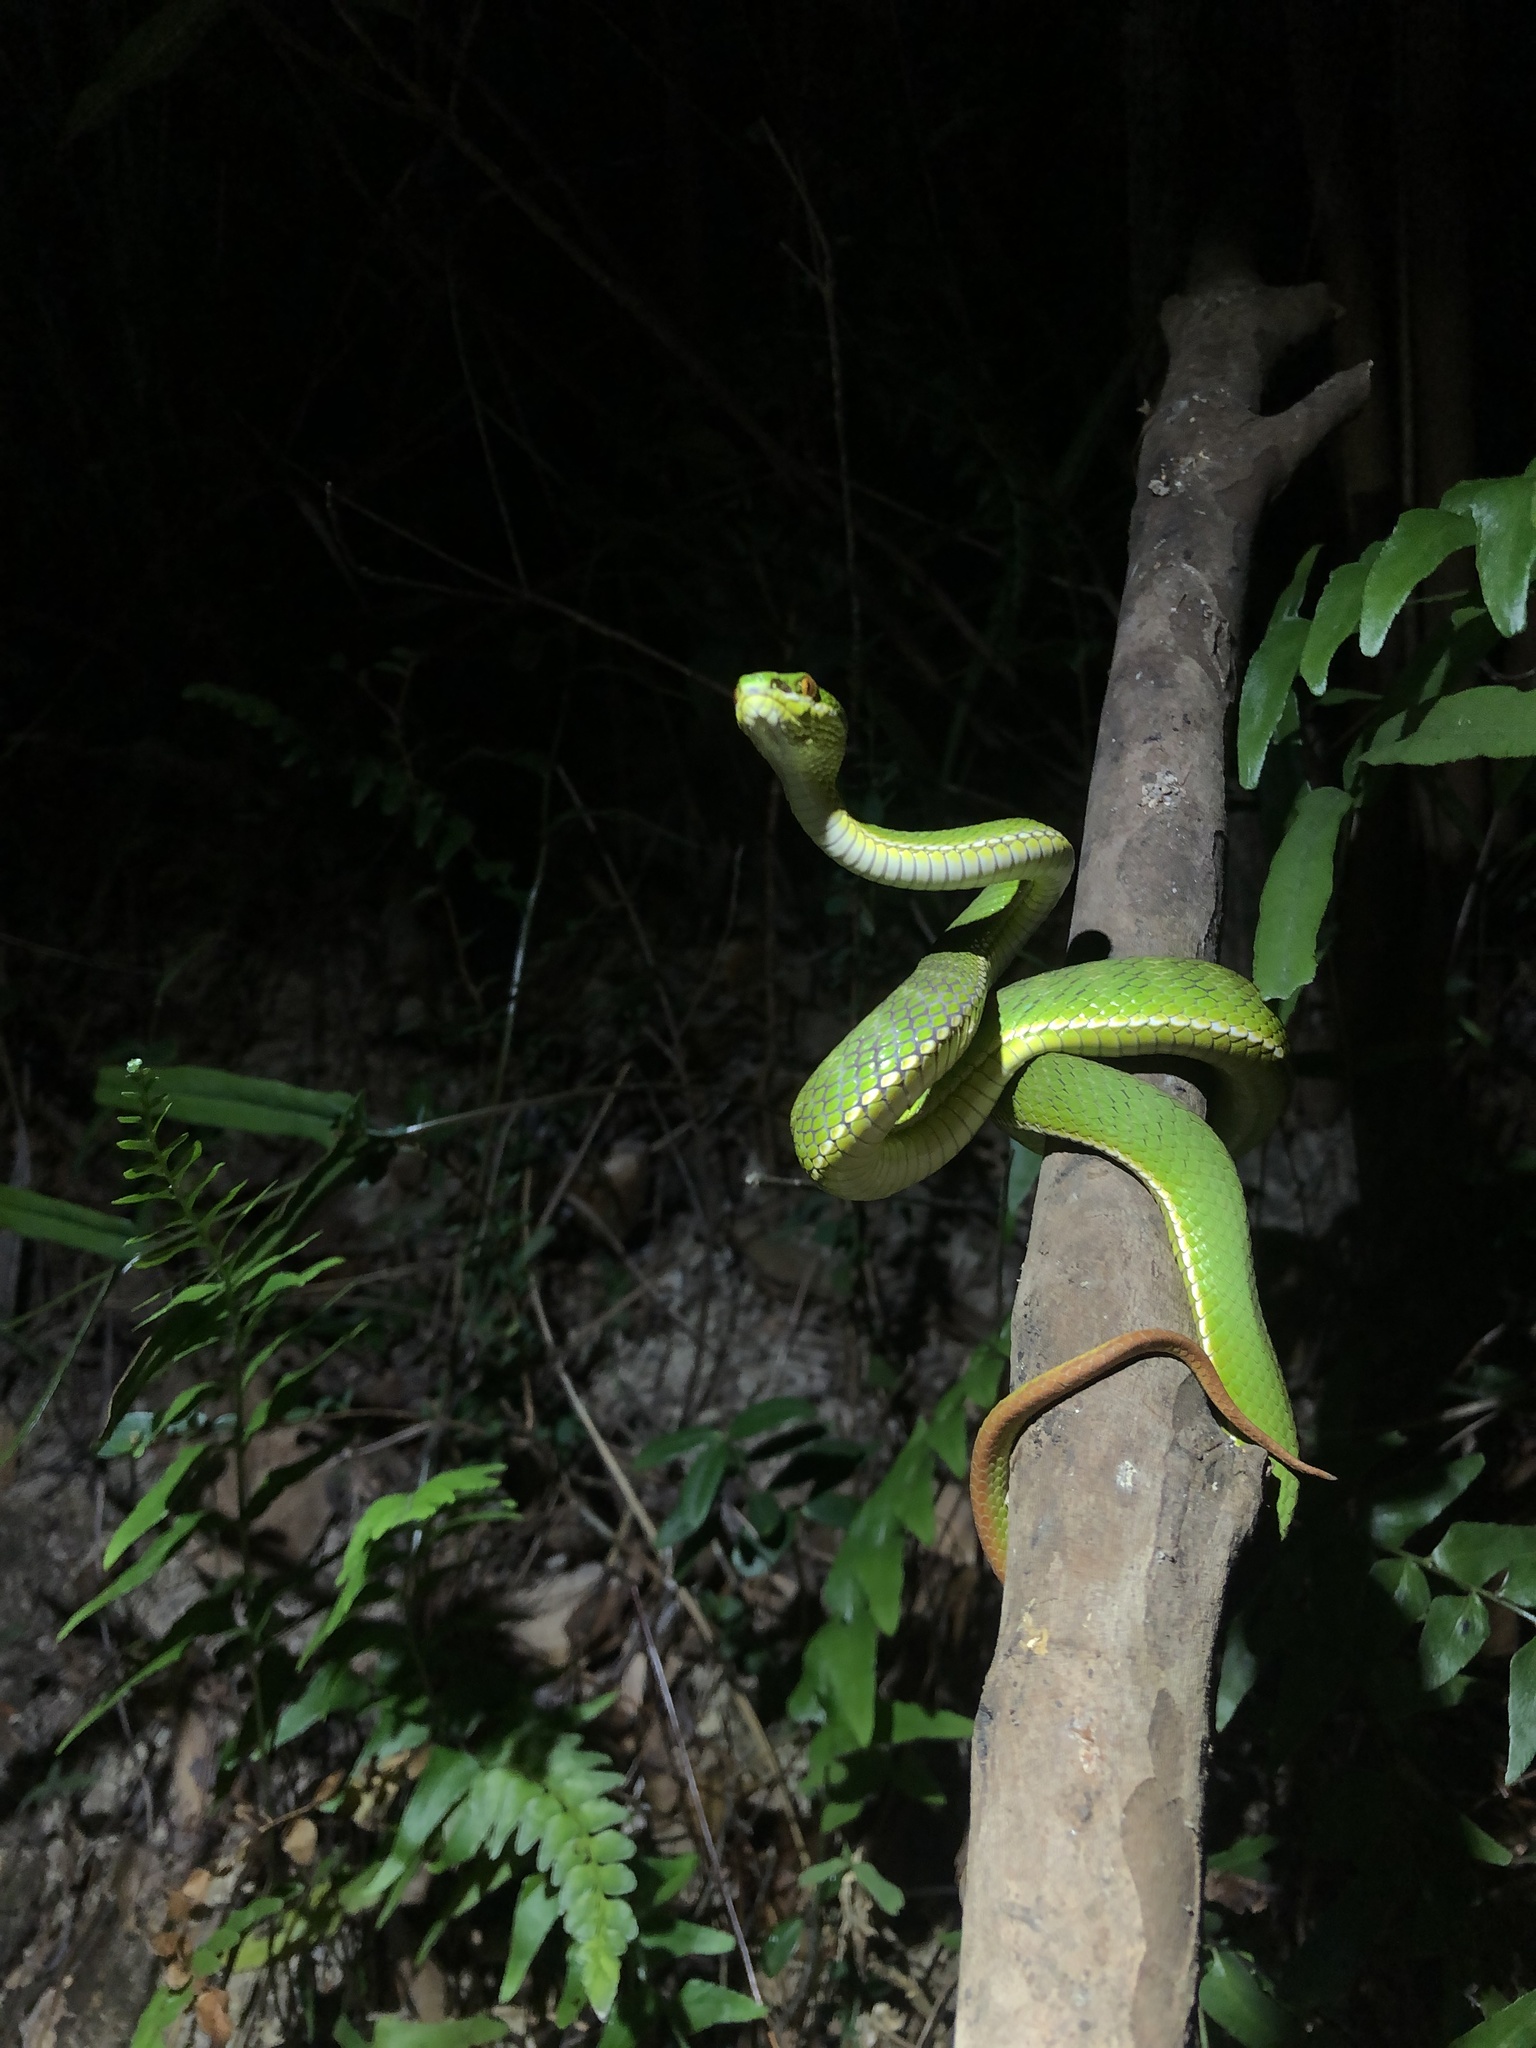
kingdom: Animalia
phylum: Chordata
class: Squamata
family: Viperidae
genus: Trimeresurus
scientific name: Trimeresurus albolabris
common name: White-lipped pitviper
